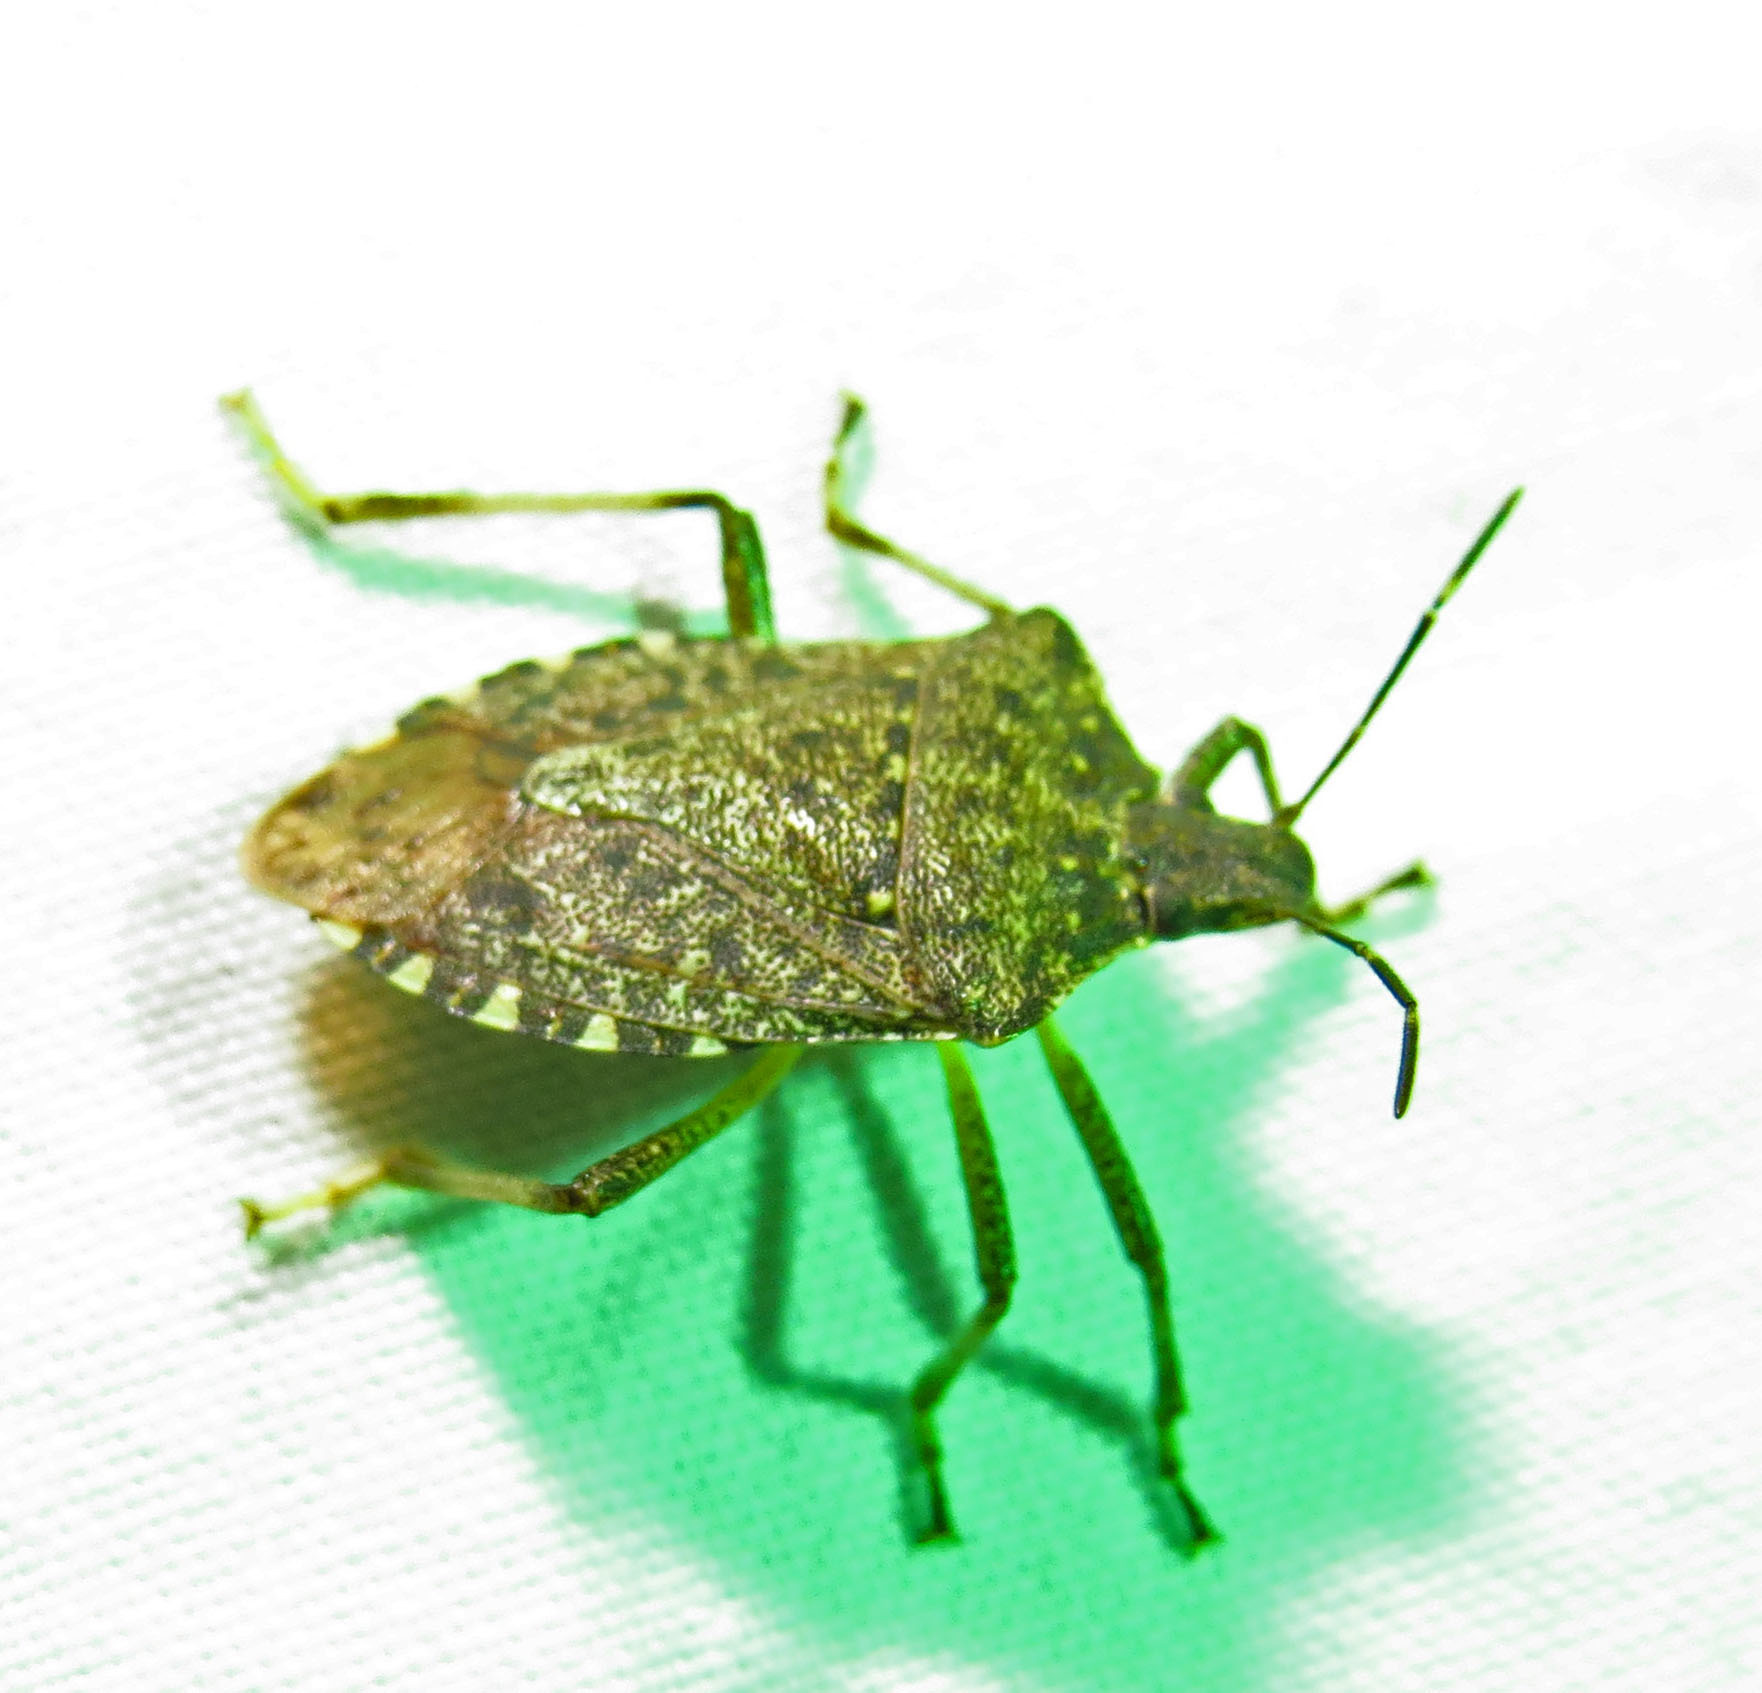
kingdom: Animalia
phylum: Arthropoda
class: Insecta
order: Hemiptera
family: Pentatomidae
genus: Halyomorpha
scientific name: Halyomorpha halys
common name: Brown marmorated stink bug
